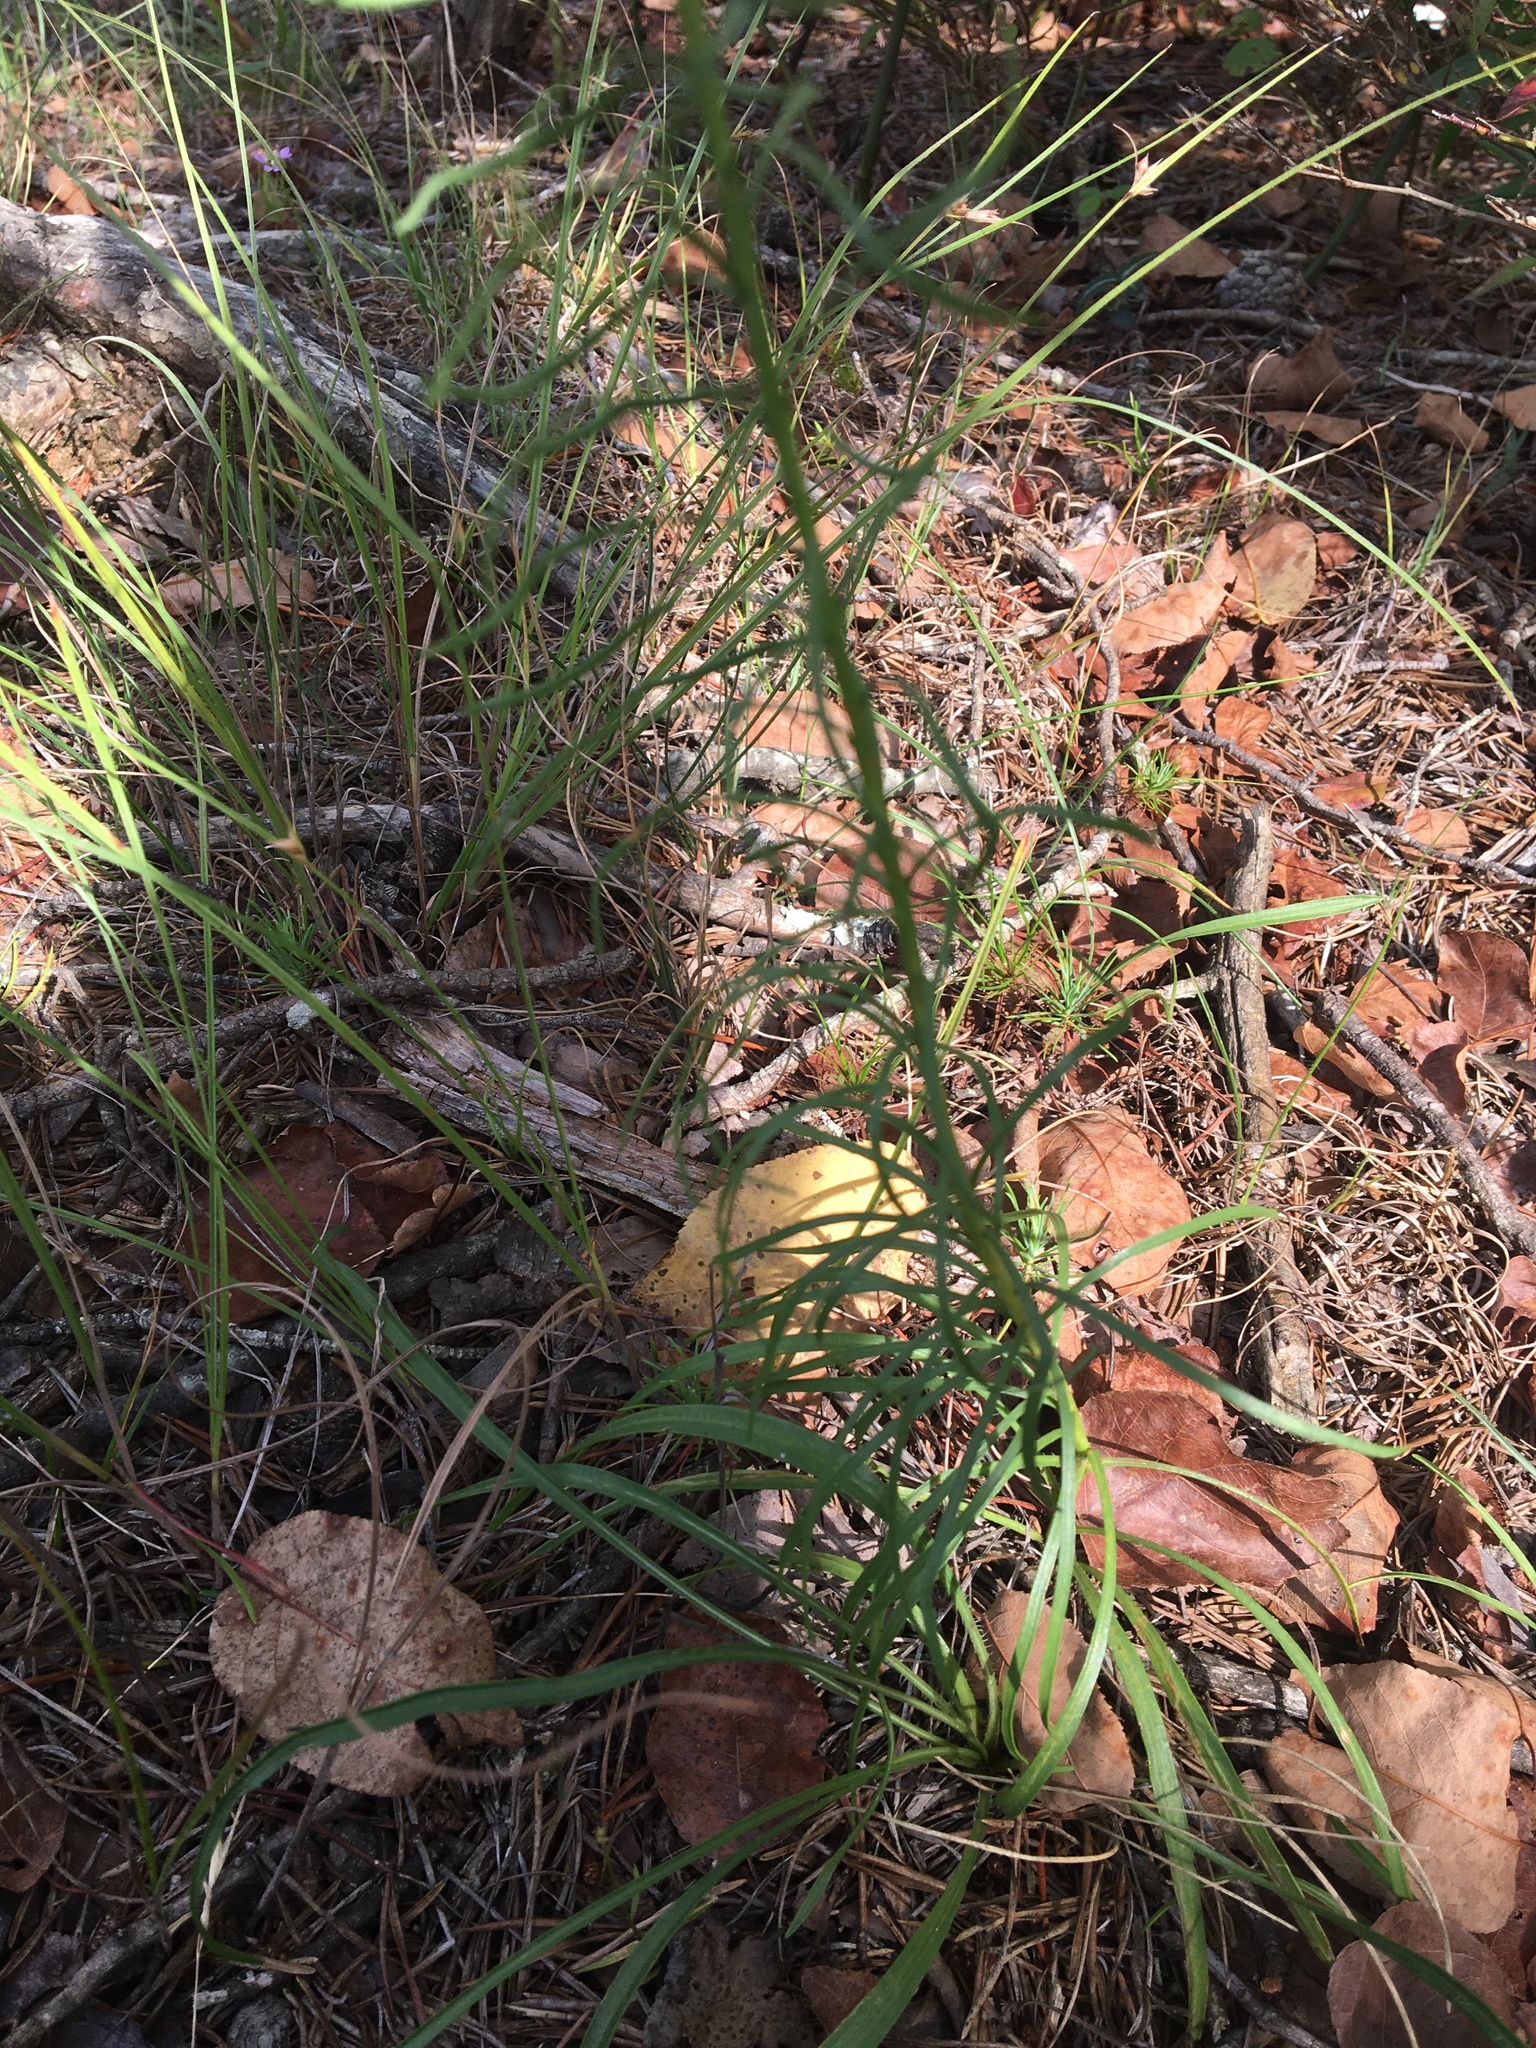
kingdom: Plantae
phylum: Tracheophyta
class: Magnoliopsida
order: Asterales
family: Asteraceae
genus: Liatris
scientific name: Liatris microcephala
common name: Small-head gayfeather
